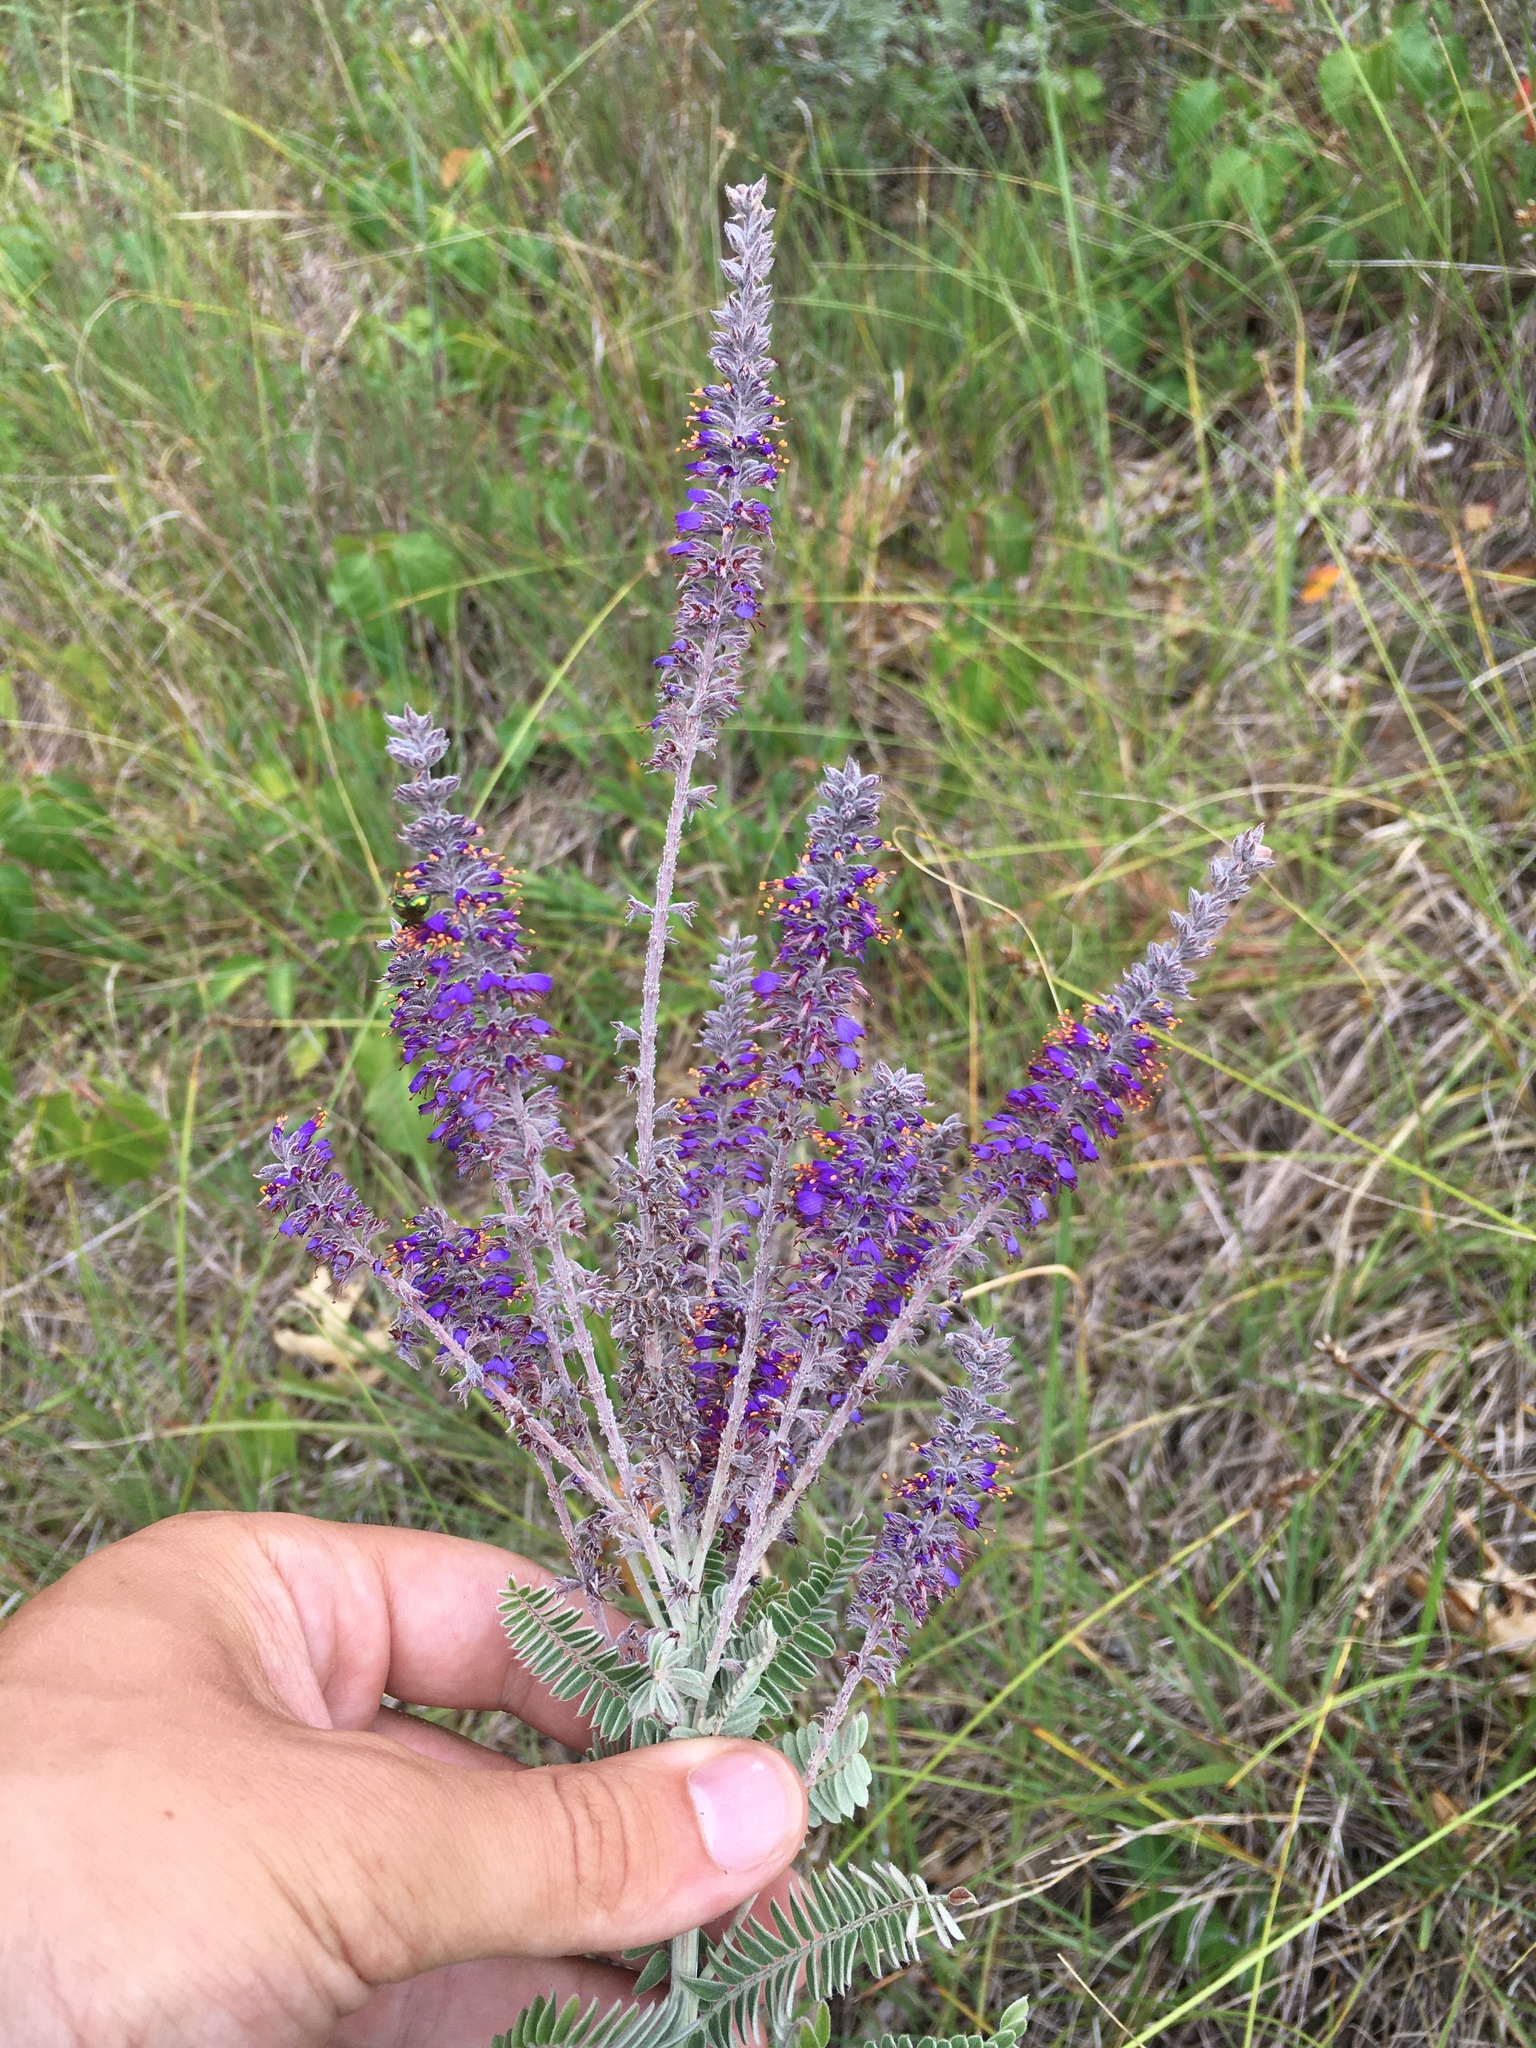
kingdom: Plantae
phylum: Tracheophyta
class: Magnoliopsida
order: Fabales
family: Fabaceae
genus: Amorpha
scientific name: Amorpha canescens
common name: Leadplant
